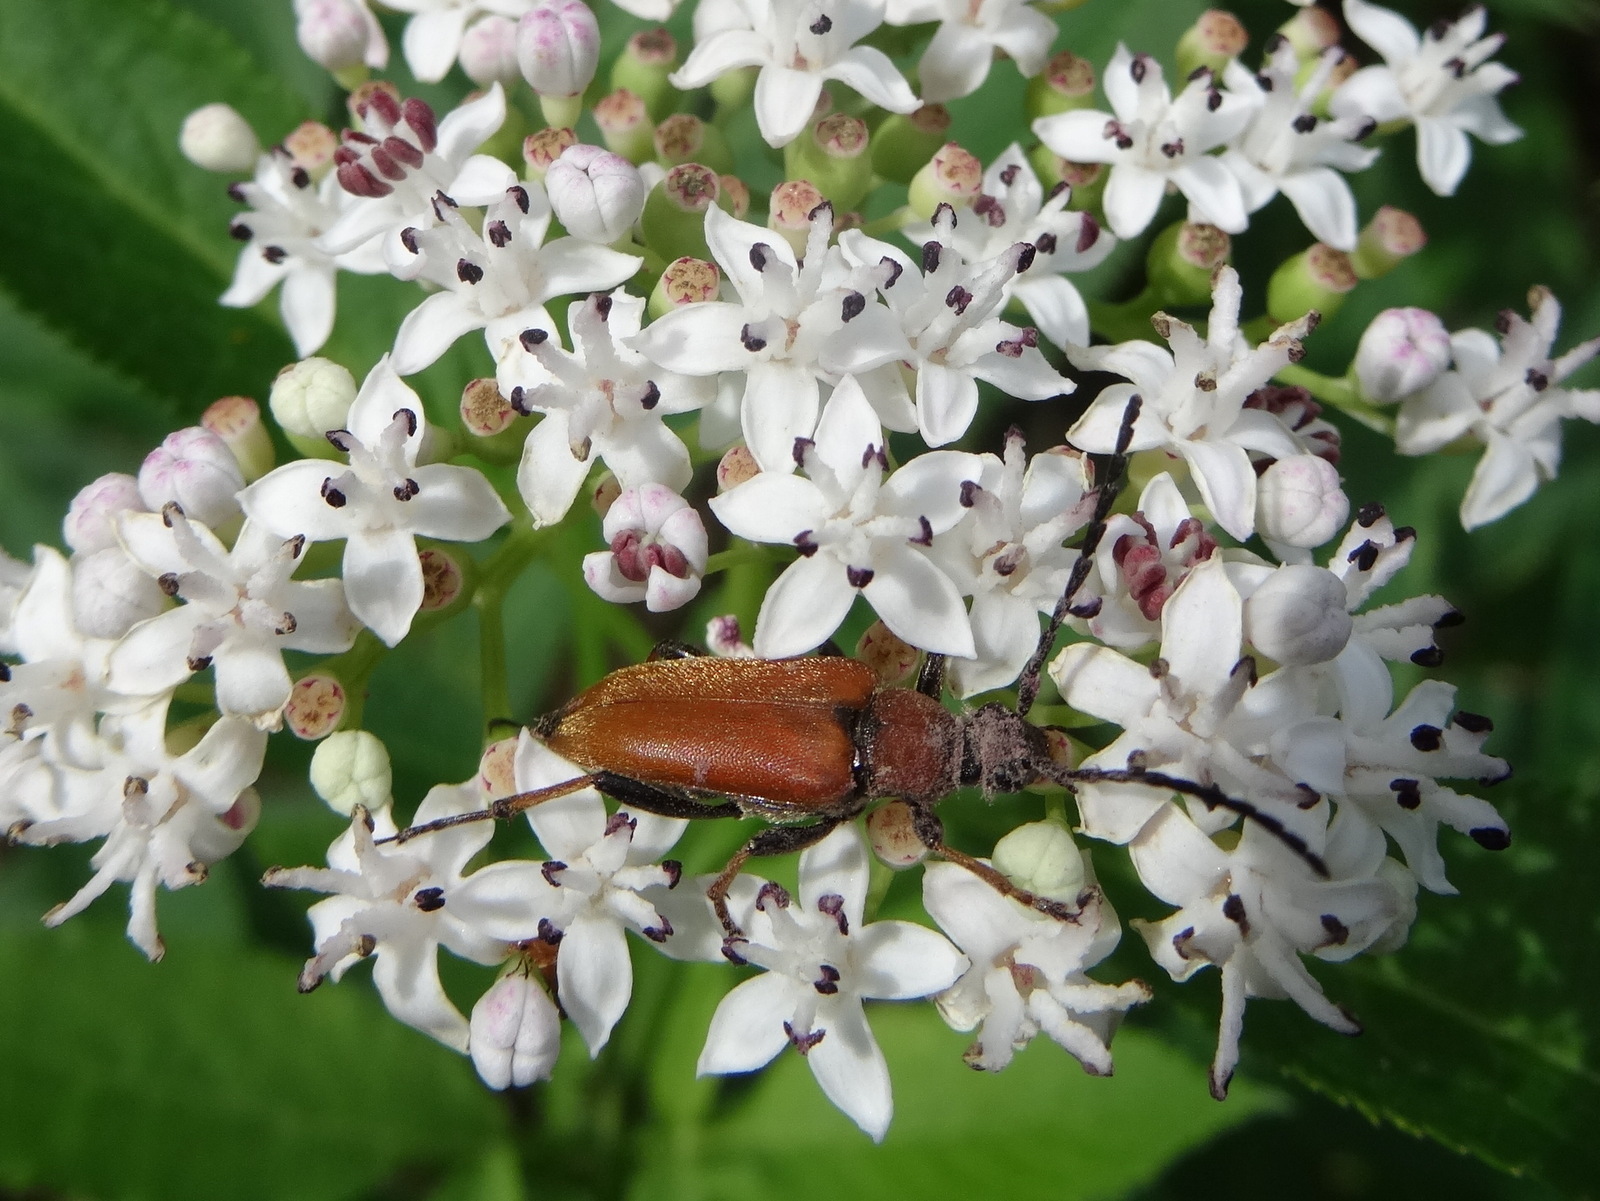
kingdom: Animalia
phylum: Arthropoda
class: Insecta
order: Coleoptera
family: Cerambycidae
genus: Stictoleptura
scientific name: Stictoleptura rubra
